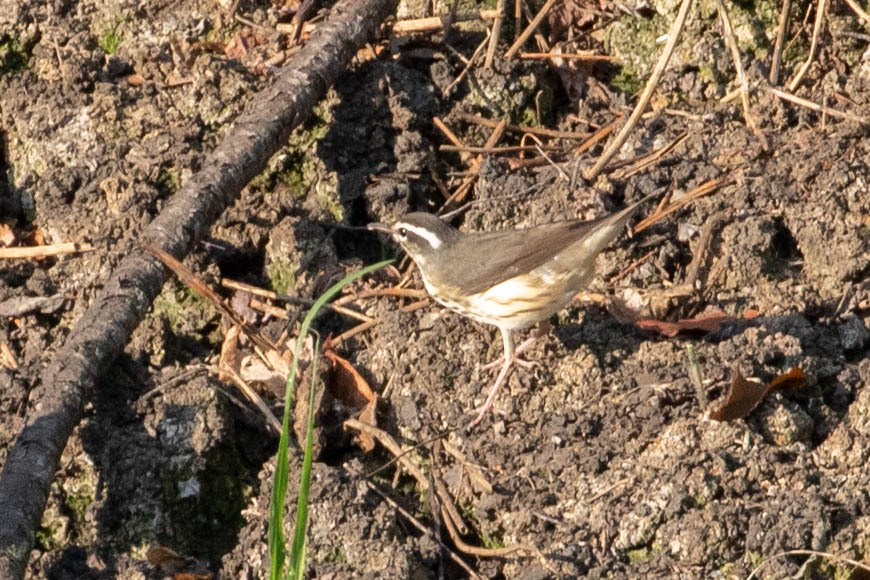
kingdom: Animalia
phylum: Chordata
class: Aves
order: Passeriformes
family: Parulidae
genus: Parkesia
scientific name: Parkesia motacilla
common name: Louisiana waterthrush
